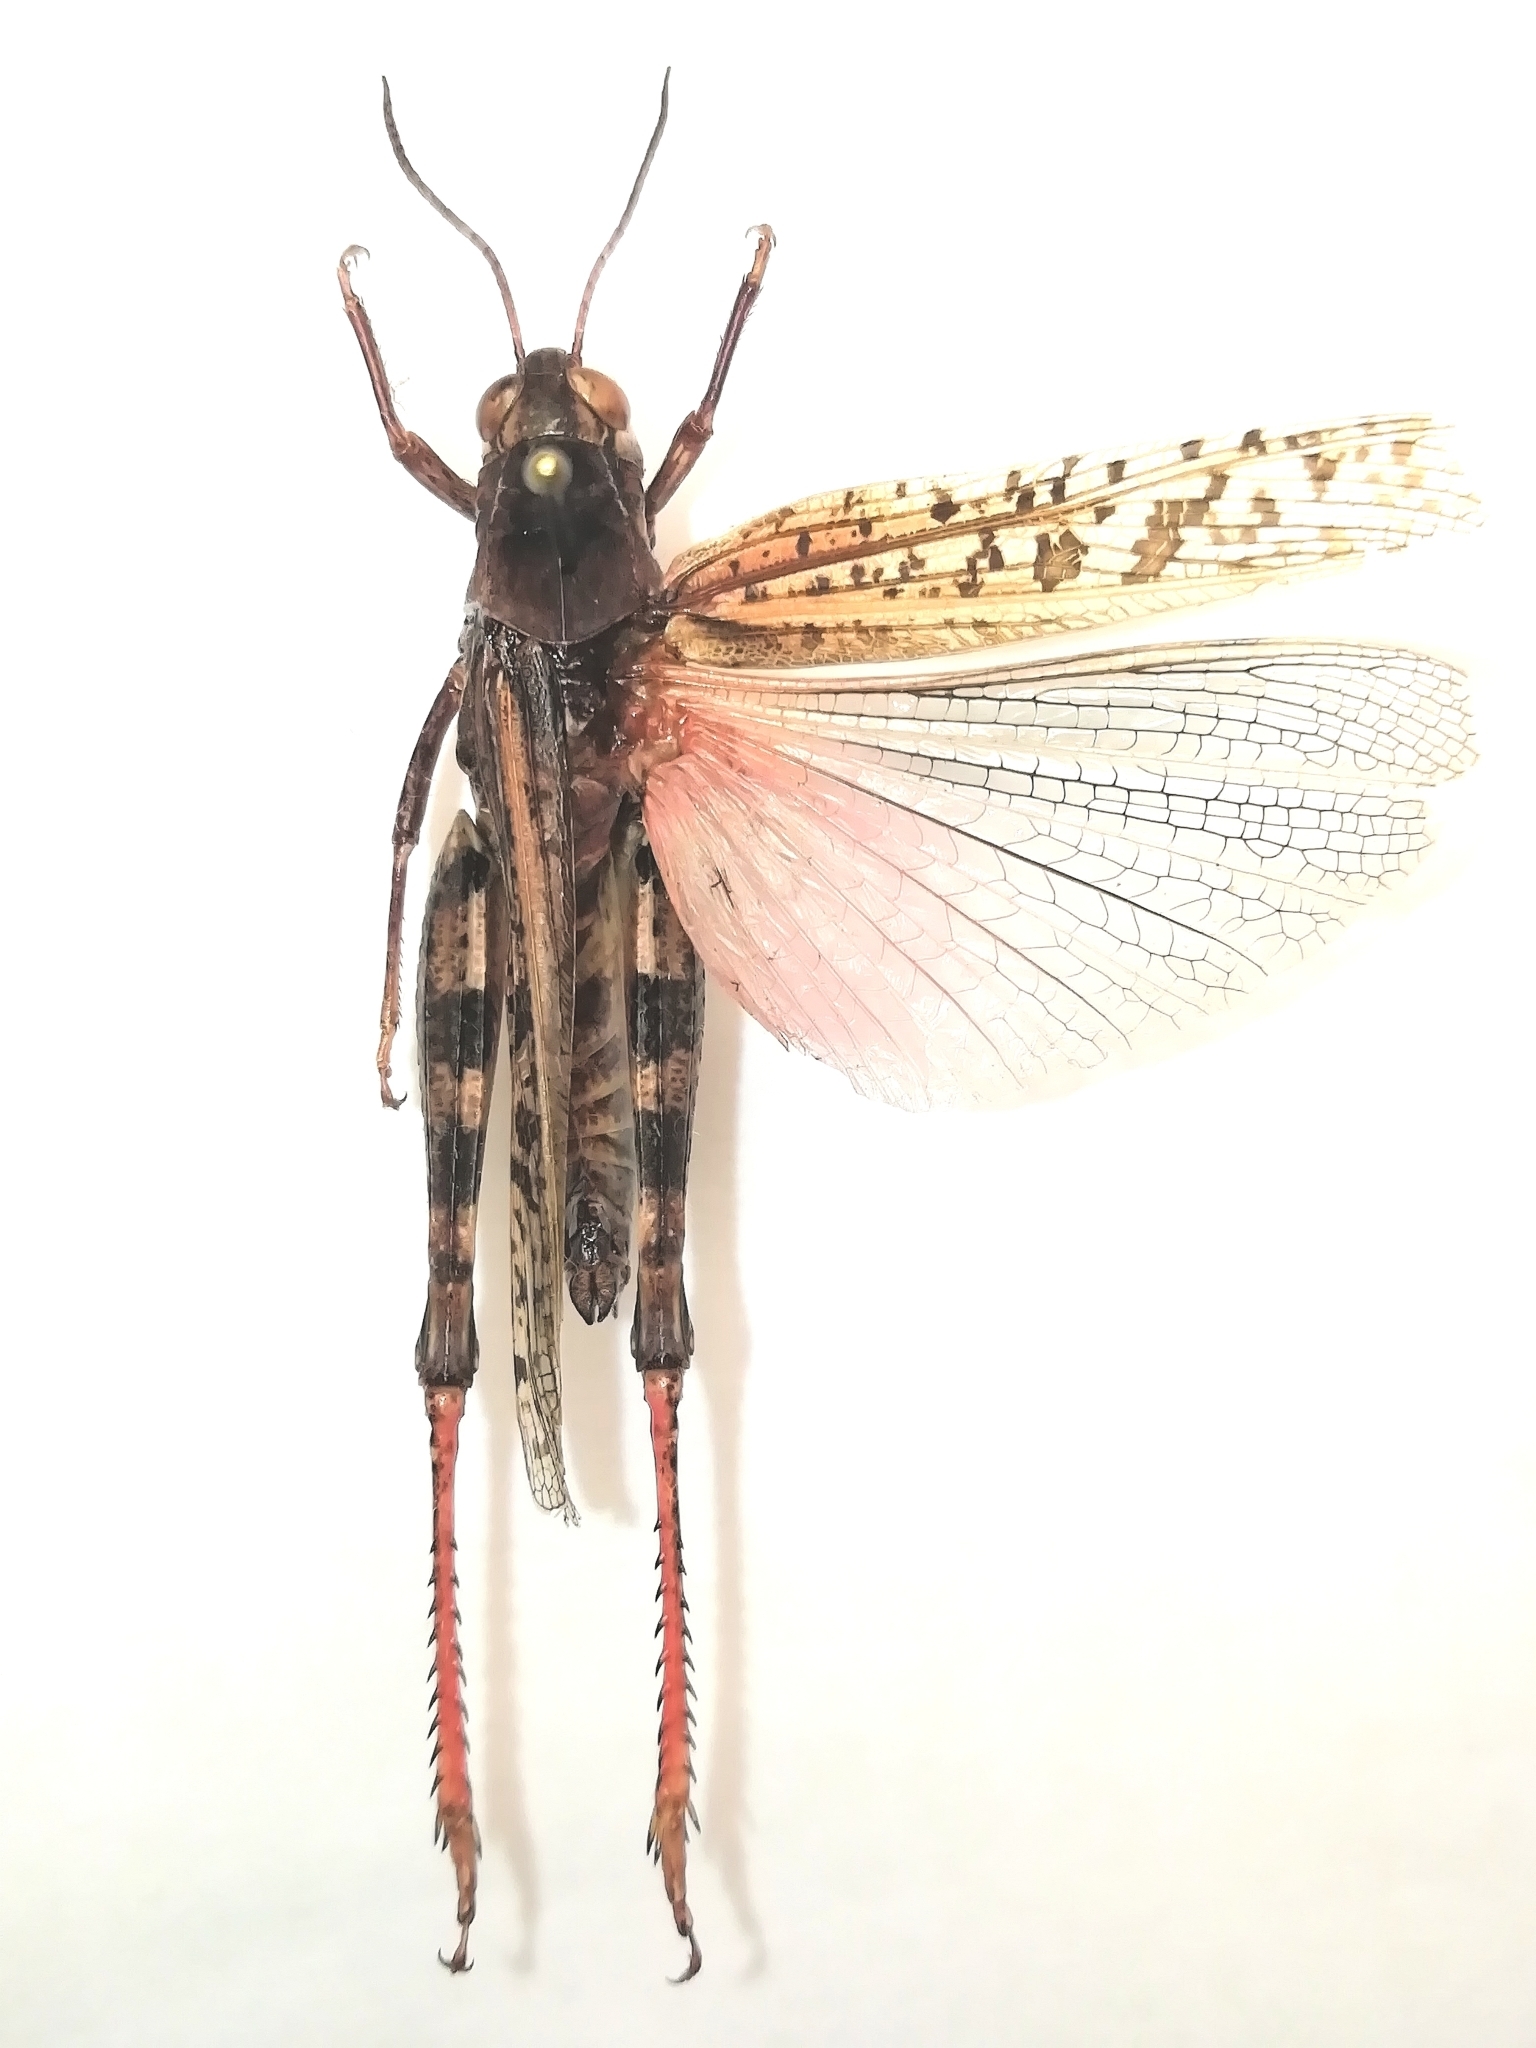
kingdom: Animalia
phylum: Arthropoda
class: Insecta
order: Orthoptera
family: Acrididae
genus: Calliptamus
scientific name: Calliptamus italicus
